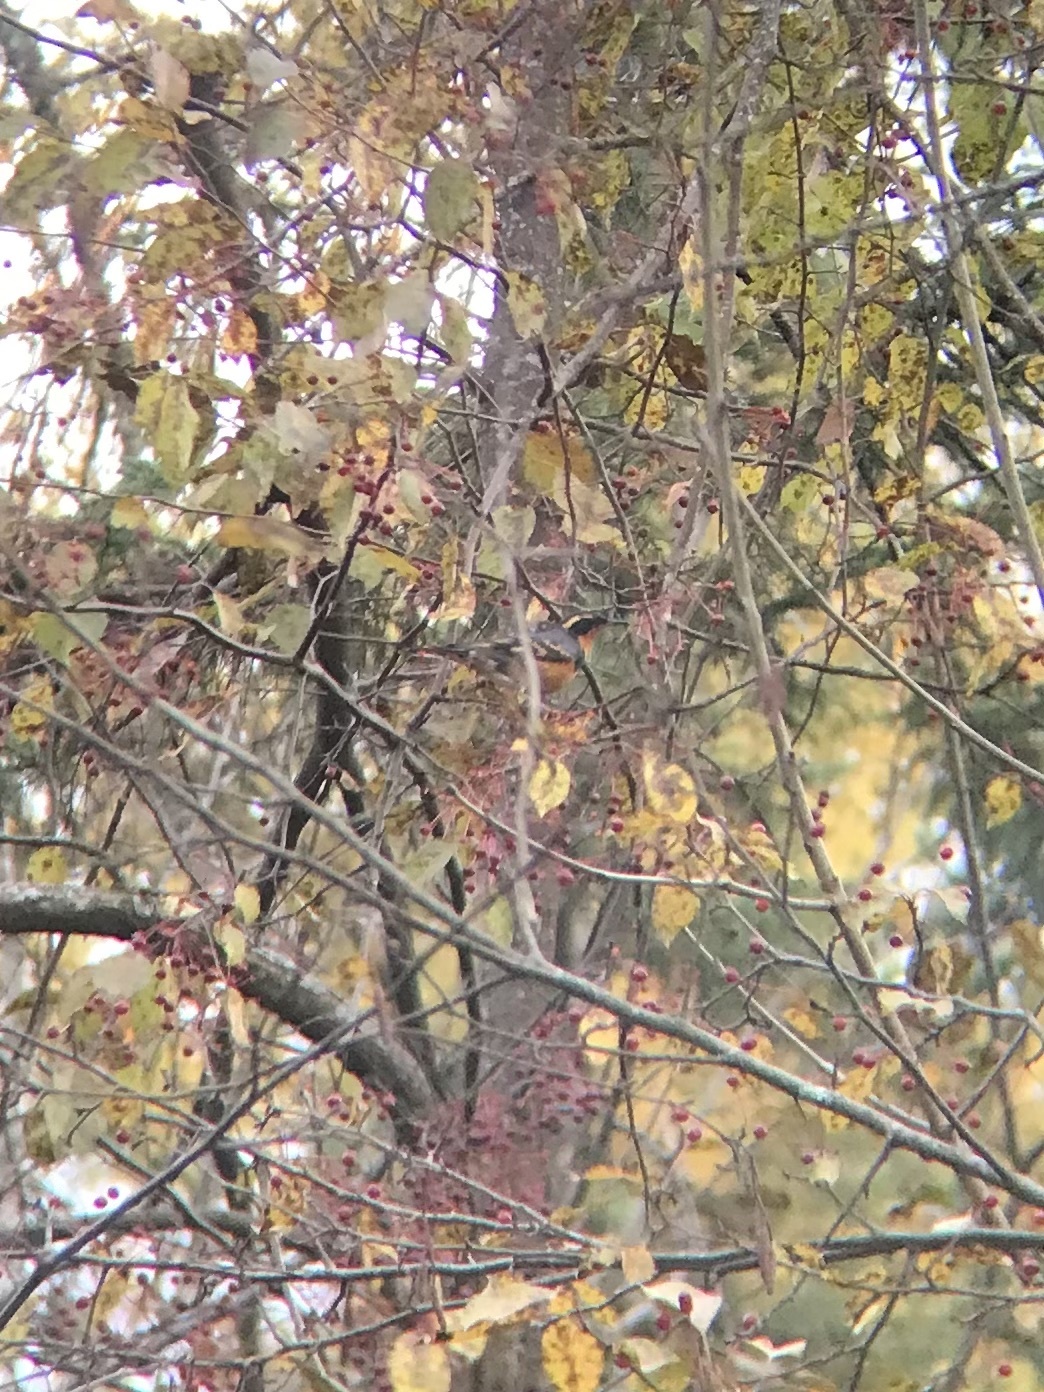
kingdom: Animalia
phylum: Chordata
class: Aves
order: Passeriformes
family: Turdidae
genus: Ixoreus
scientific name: Ixoreus naevius
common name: Varied thrush
